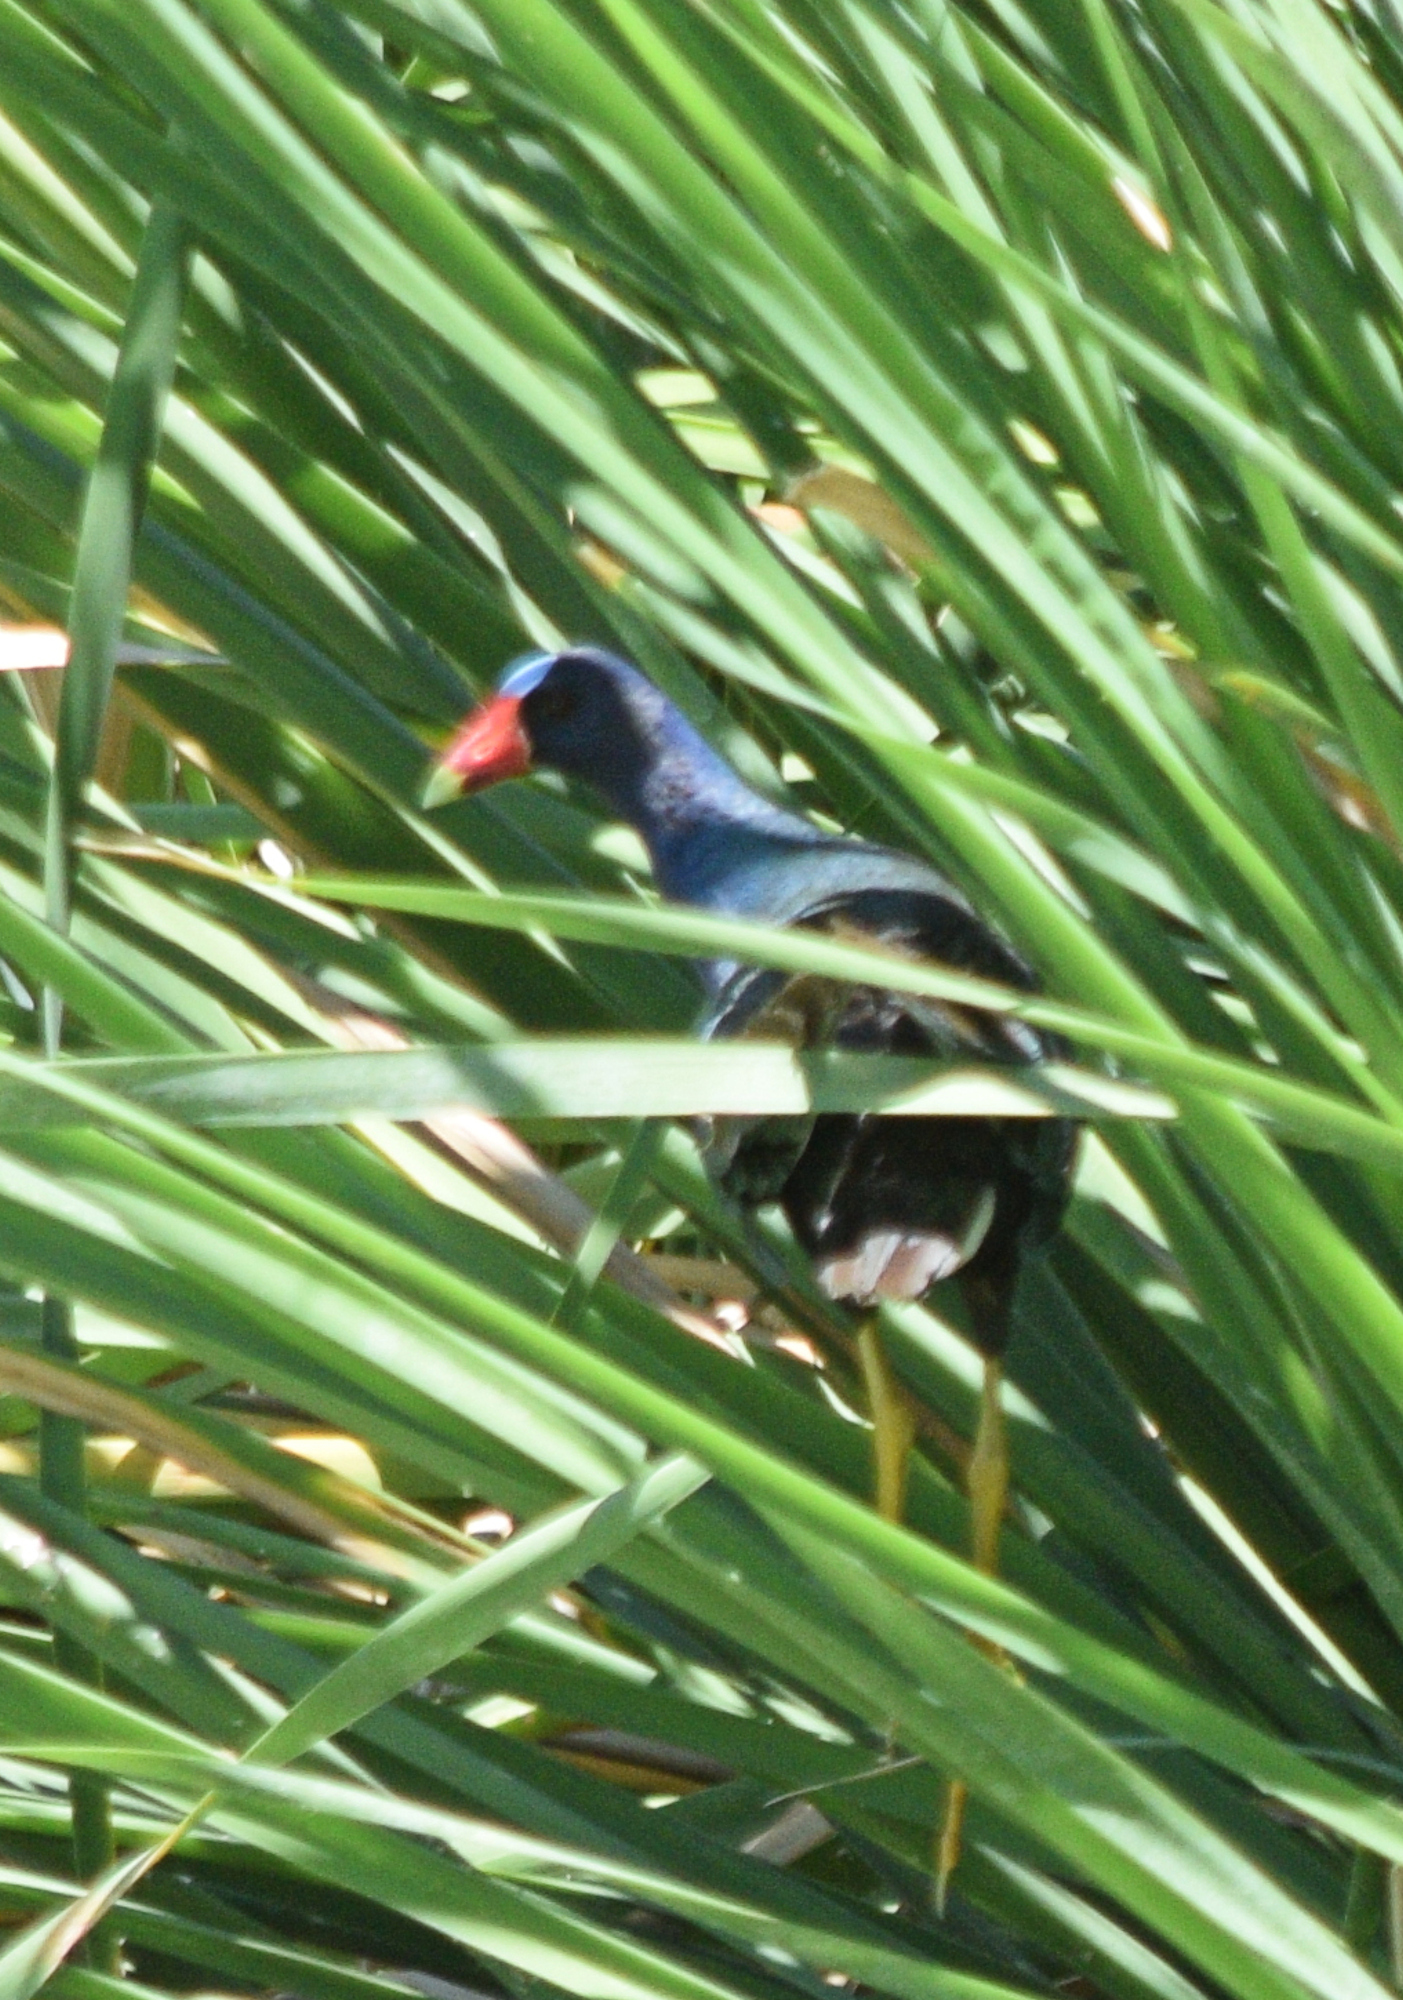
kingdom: Animalia
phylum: Chordata
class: Aves
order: Gruiformes
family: Rallidae
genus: Porphyrio
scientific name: Porphyrio martinica
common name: Purple gallinule
